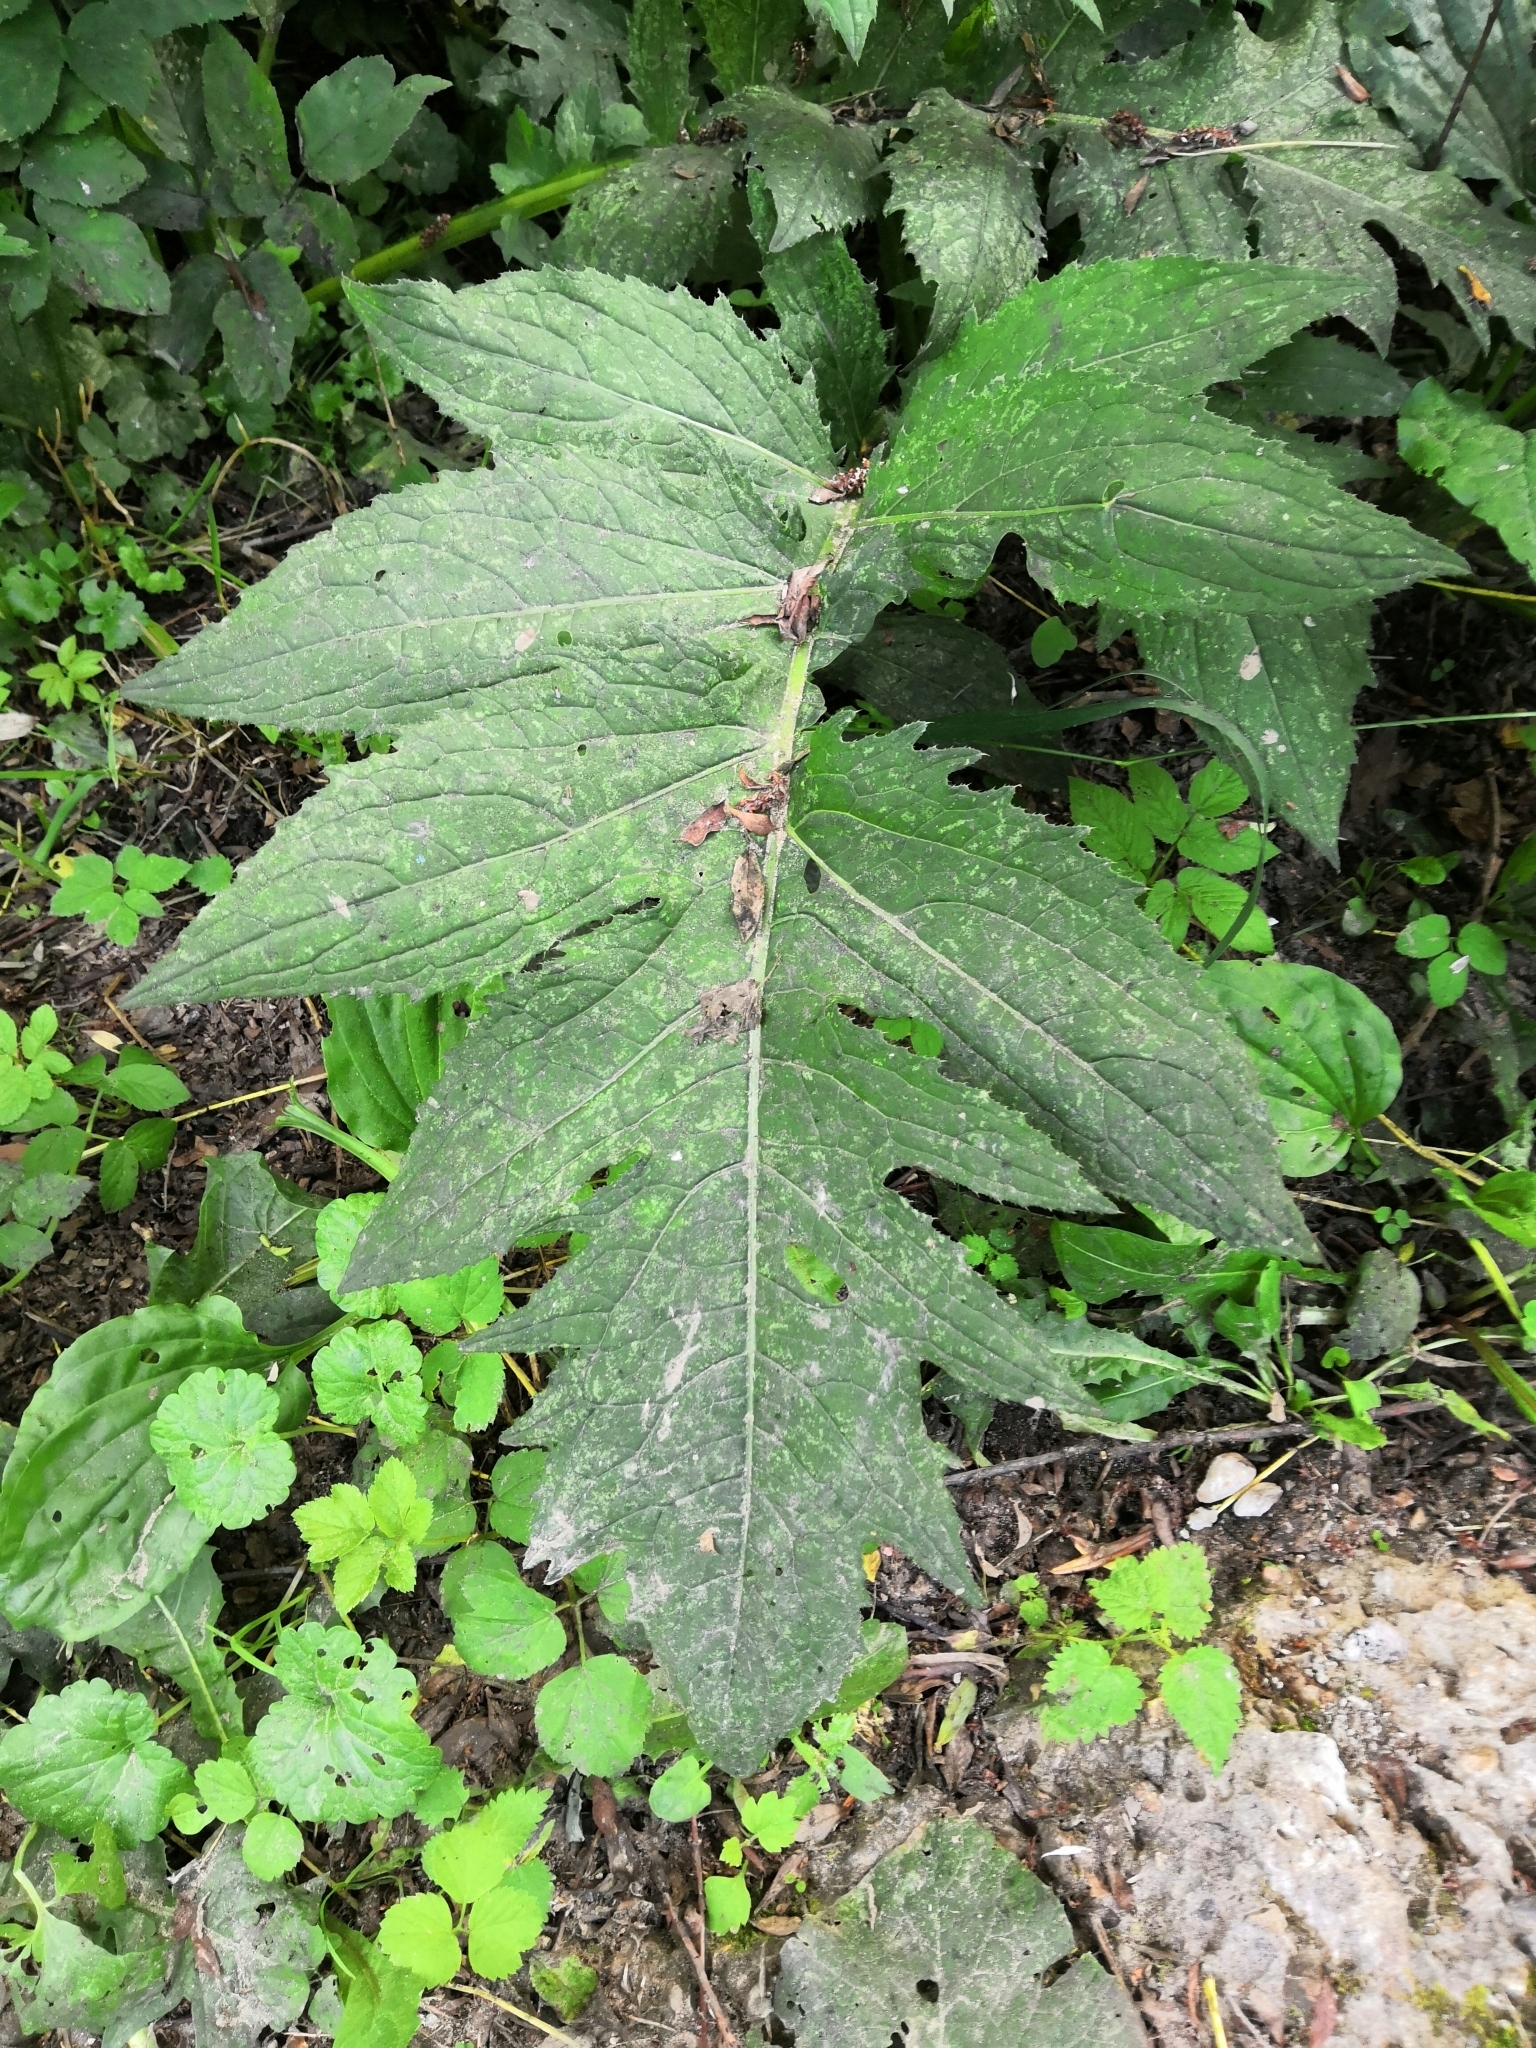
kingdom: Plantae
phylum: Tracheophyta
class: Magnoliopsida
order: Asterales
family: Asteraceae
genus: Cirsium
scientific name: Cirsium oleraceum
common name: Cabbage thistle
